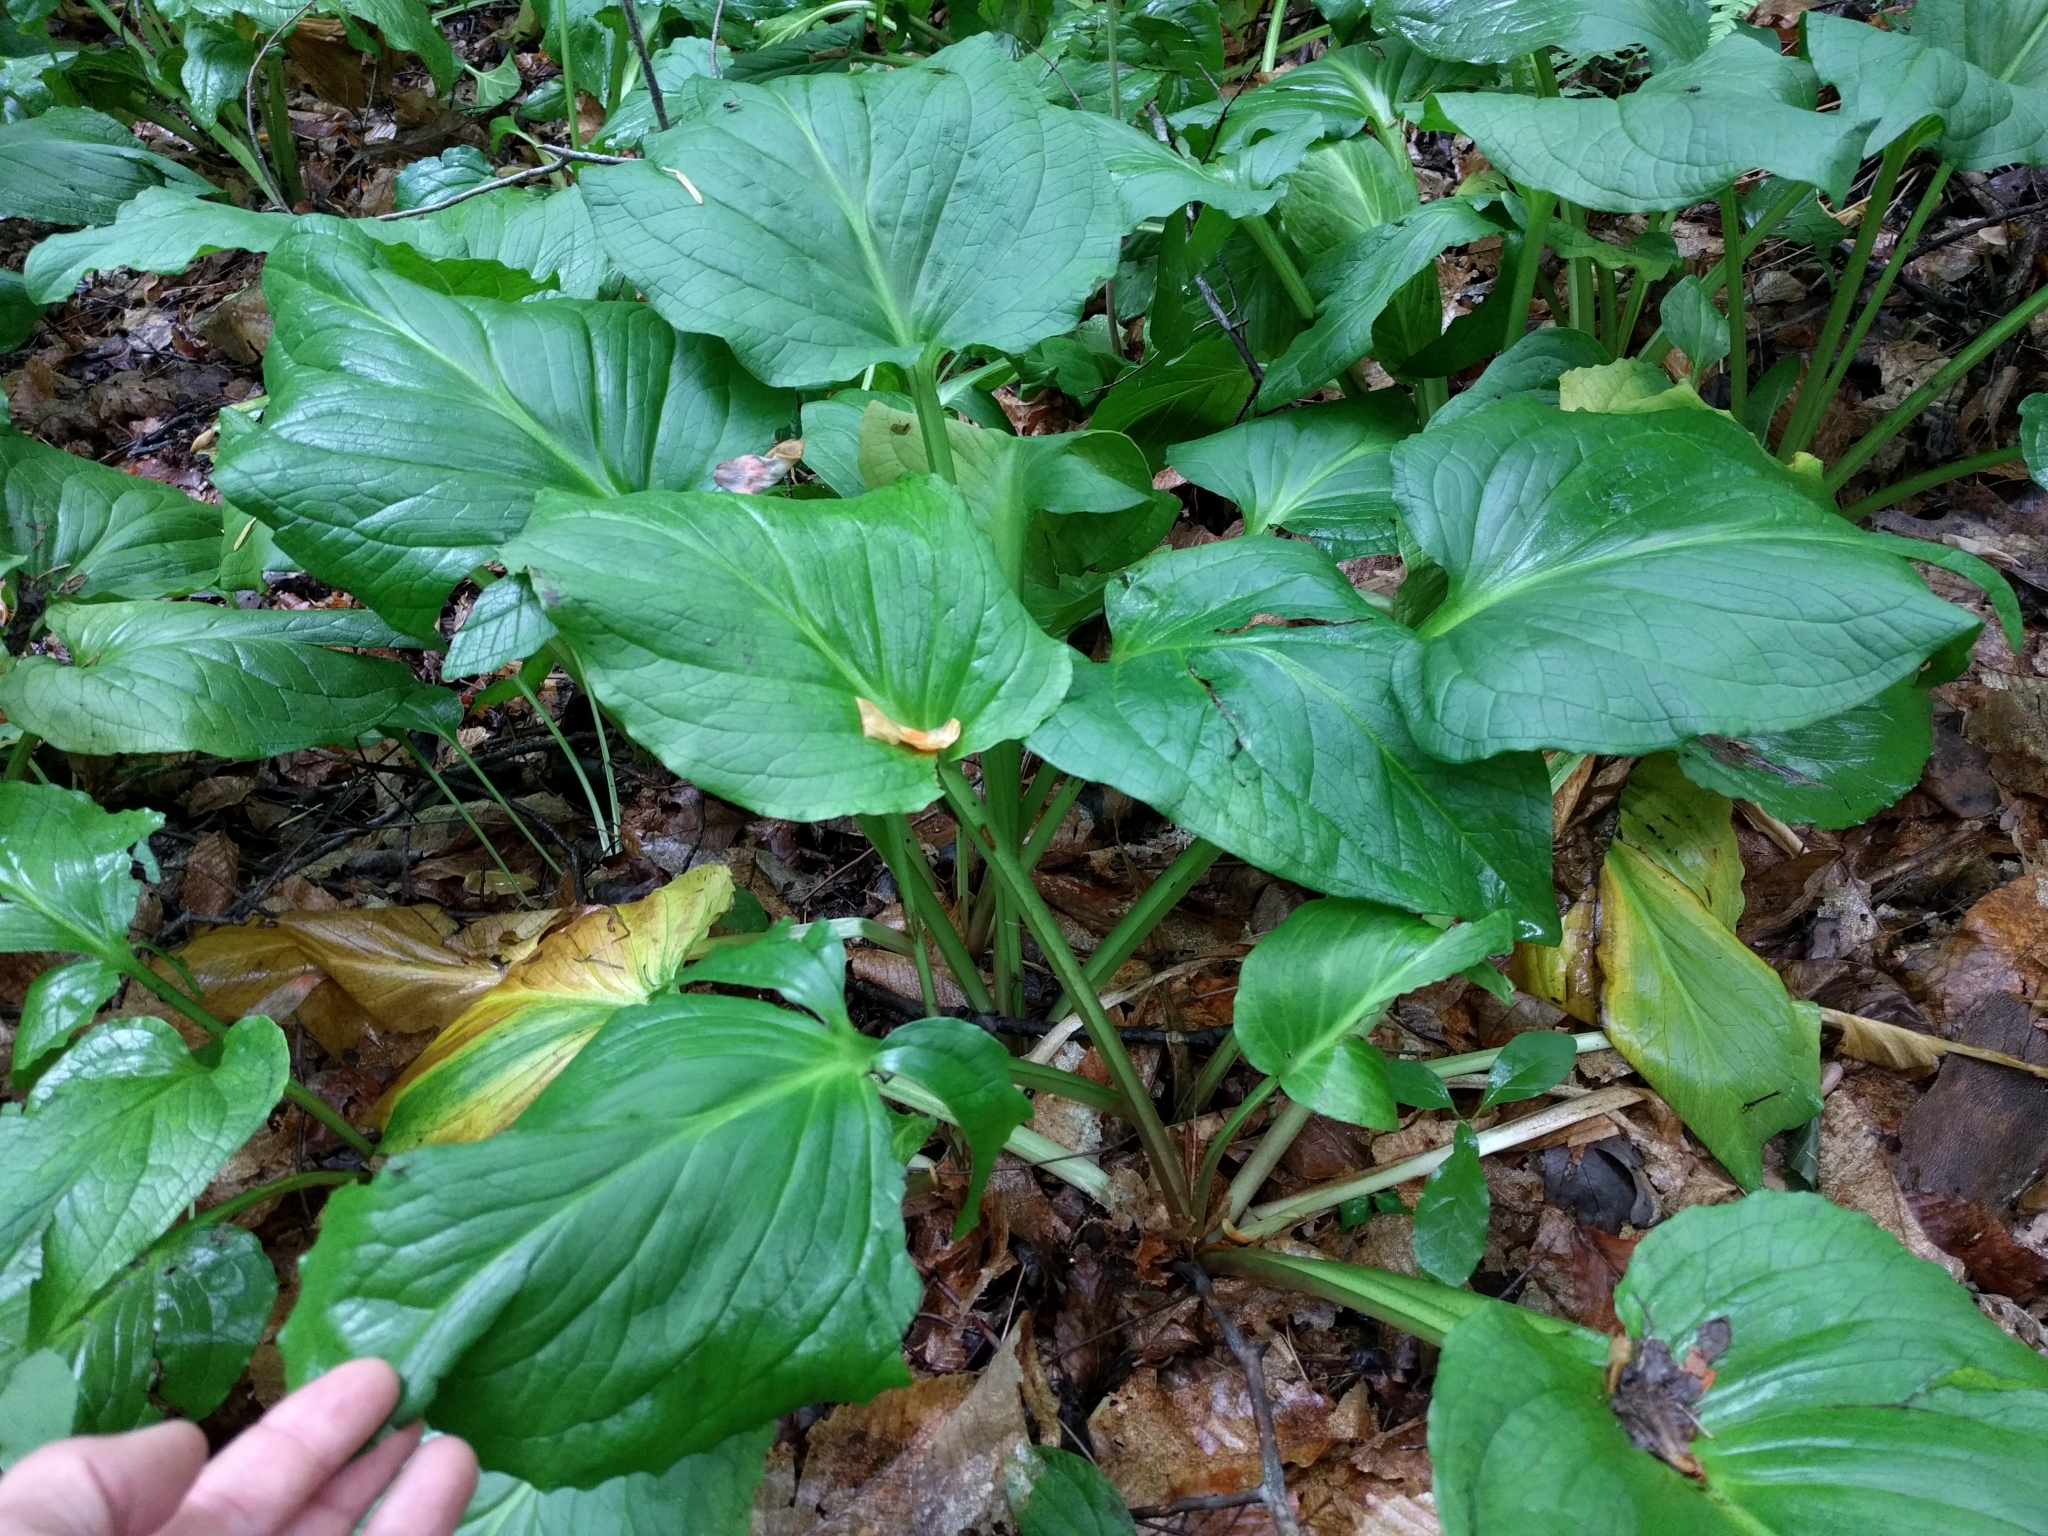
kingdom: Plantae
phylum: Tracheophyta
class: Liliopsida
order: Alismatales
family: Araceae
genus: Symplocarpus
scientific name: Symplocarpus foetidus
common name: Eastern skunk cabbage
